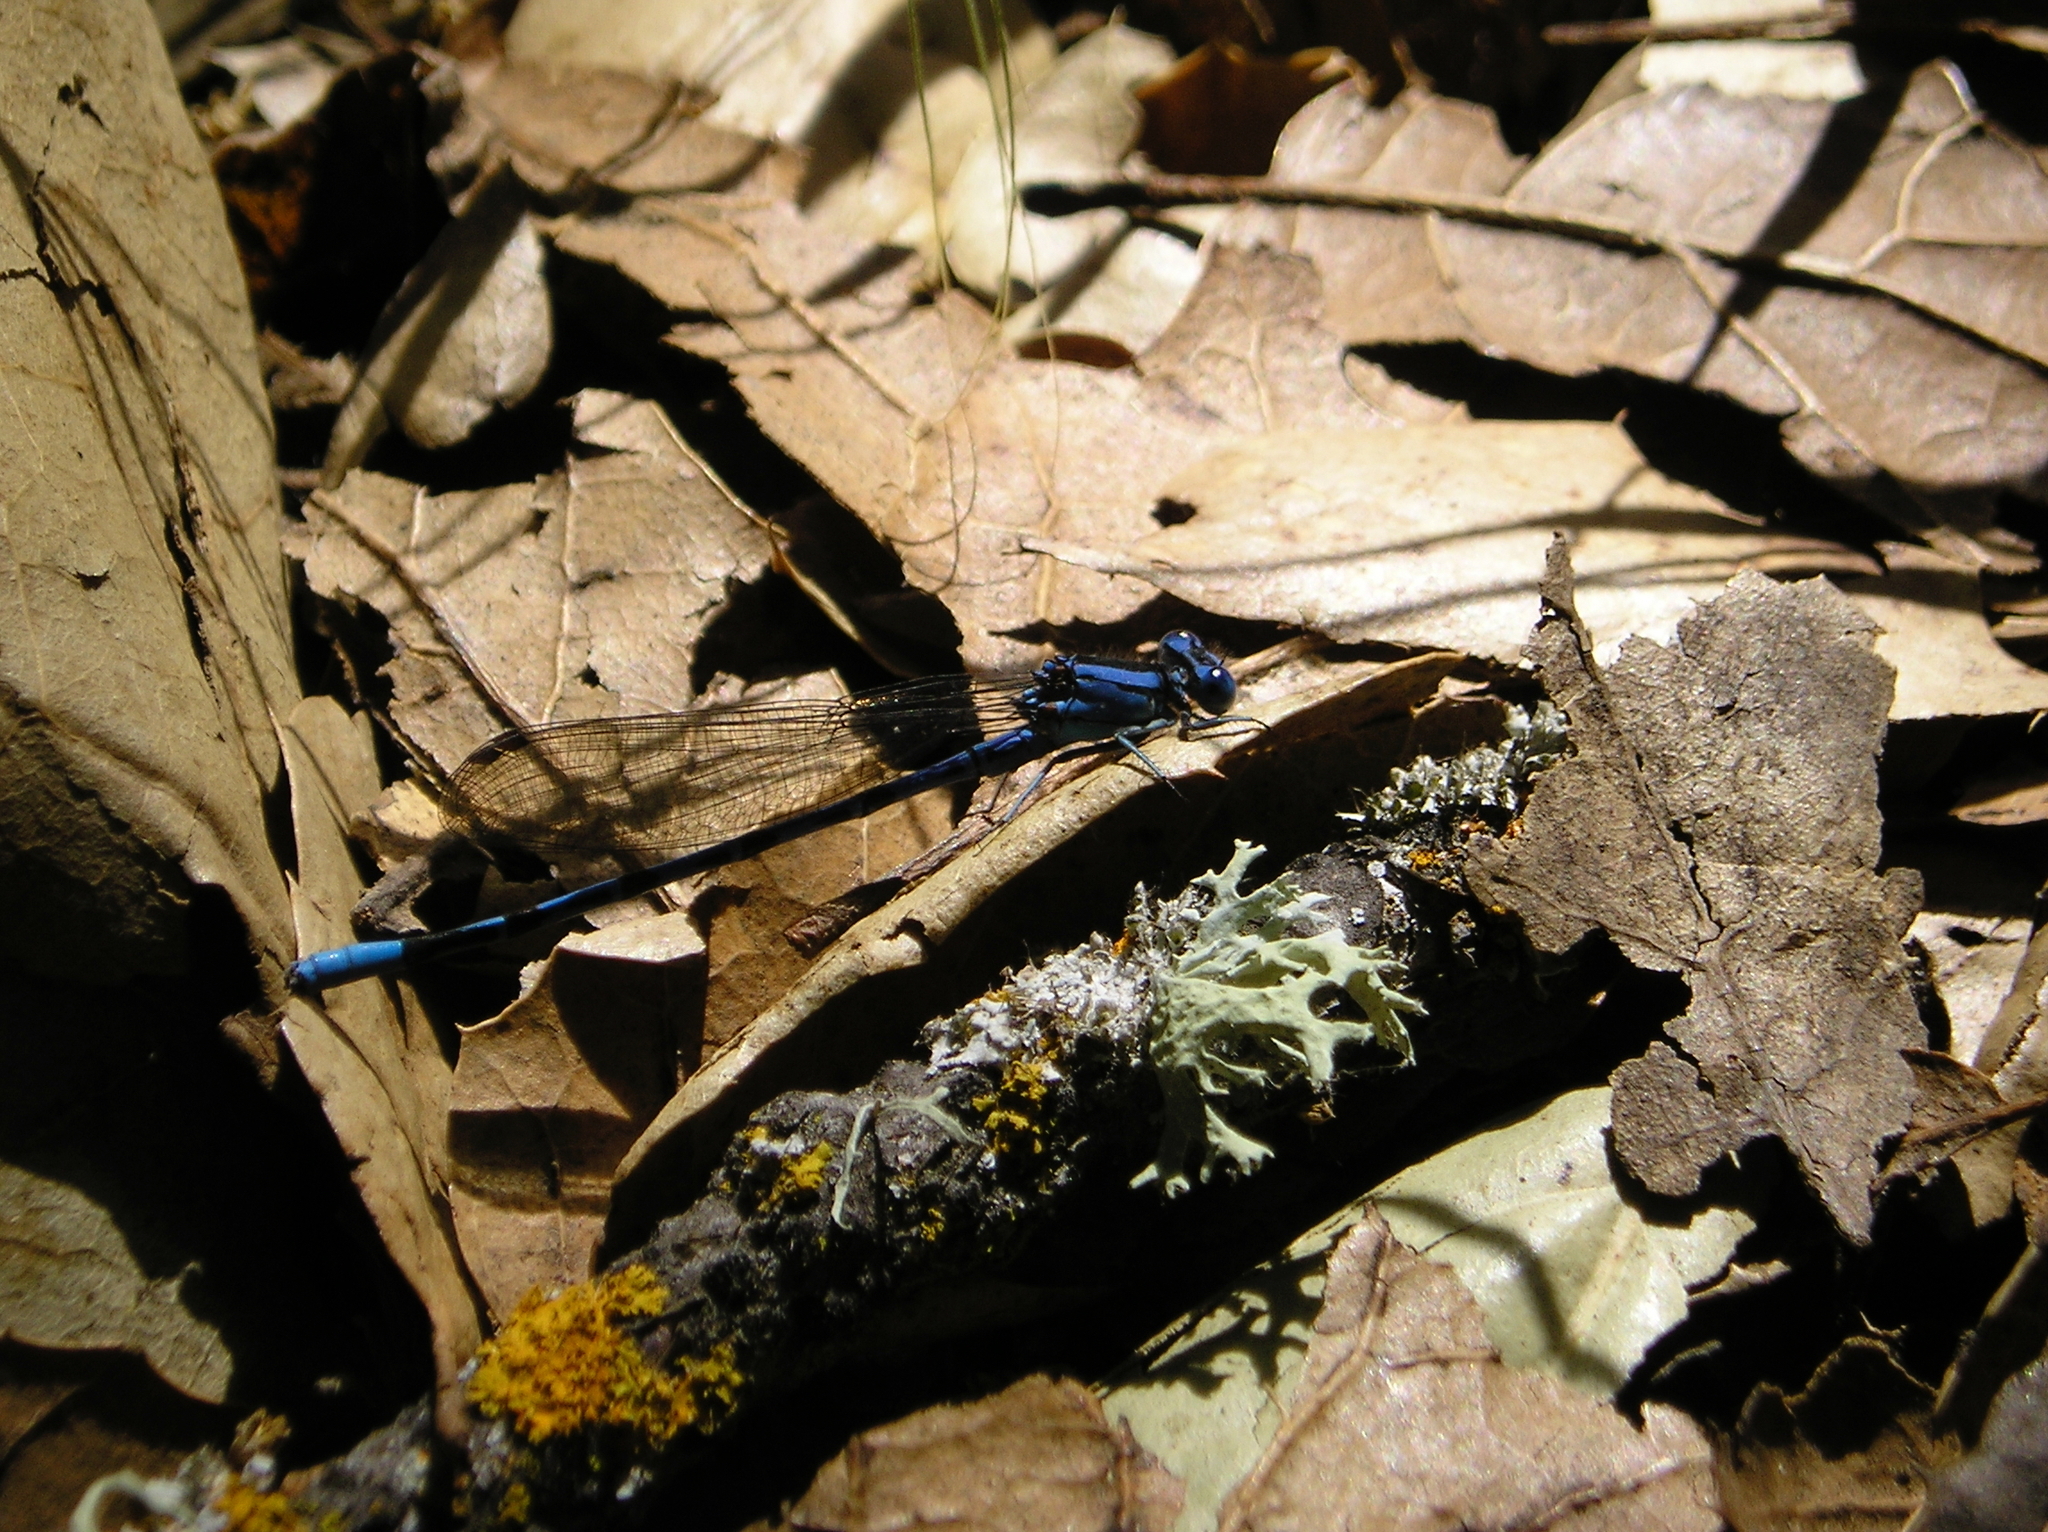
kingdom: Animalia
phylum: Arthropoda
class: Insecta
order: Odonata
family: Coenagrionidae
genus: Argia
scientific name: Argia vivida
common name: Vivid dancer
